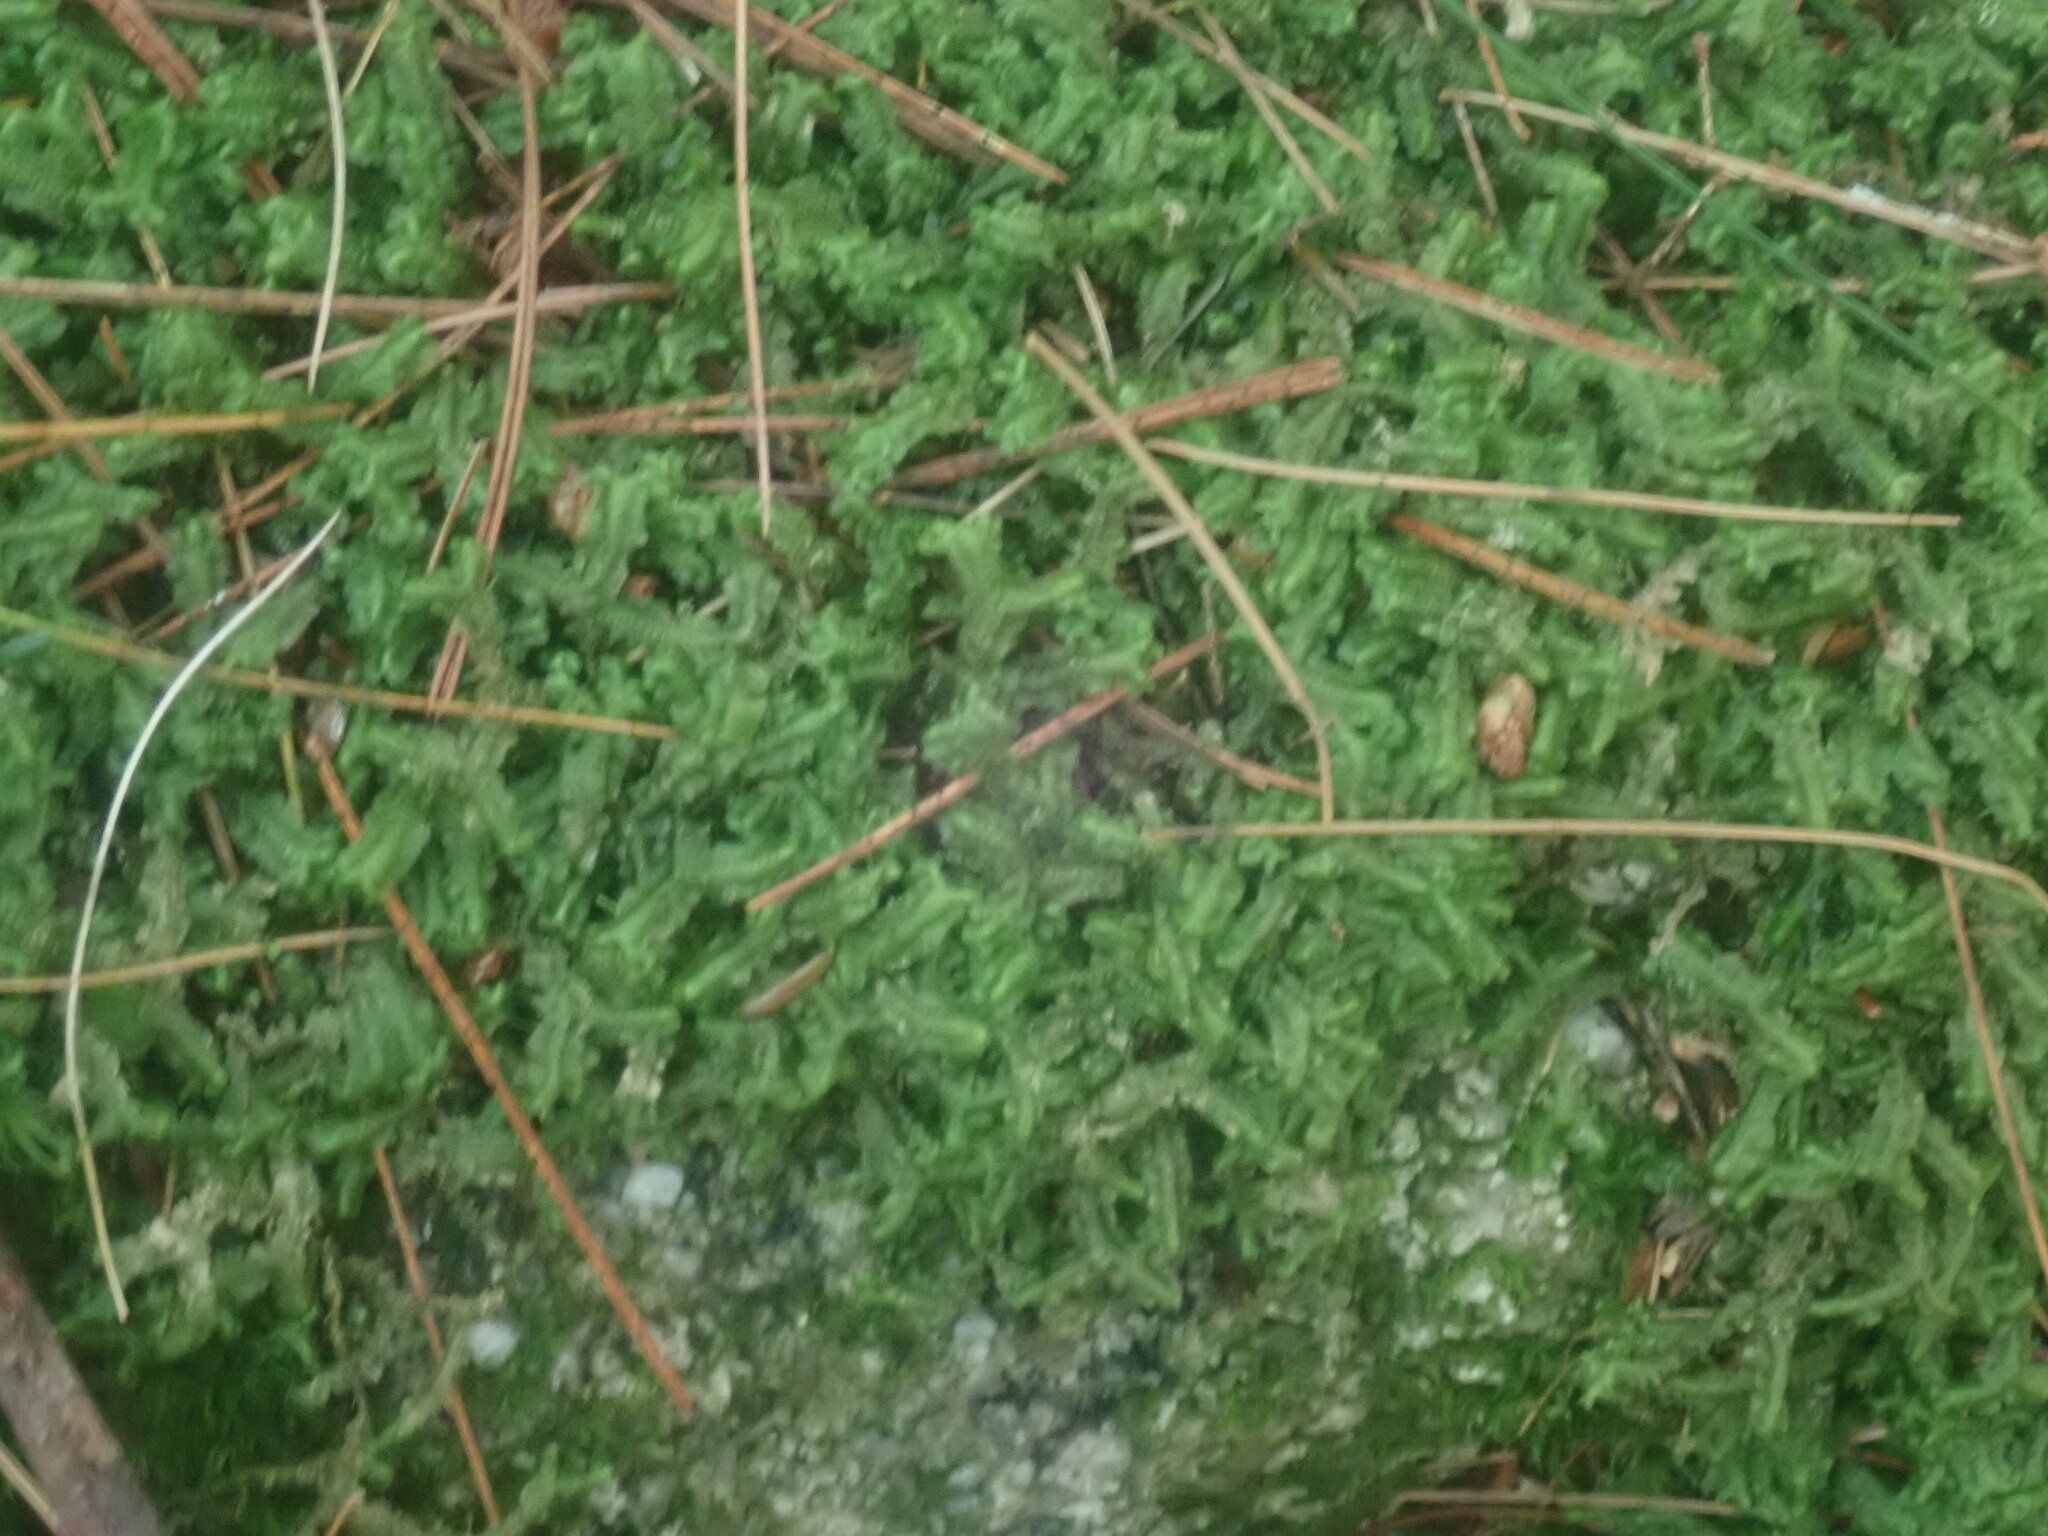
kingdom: Plantae
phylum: Marchantiophyta
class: Jungermanniopsida
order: Jungermanniales
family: Lepidoziaceae
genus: Bazzania
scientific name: Bazzania trilobata
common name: Three-lobed whipwort
